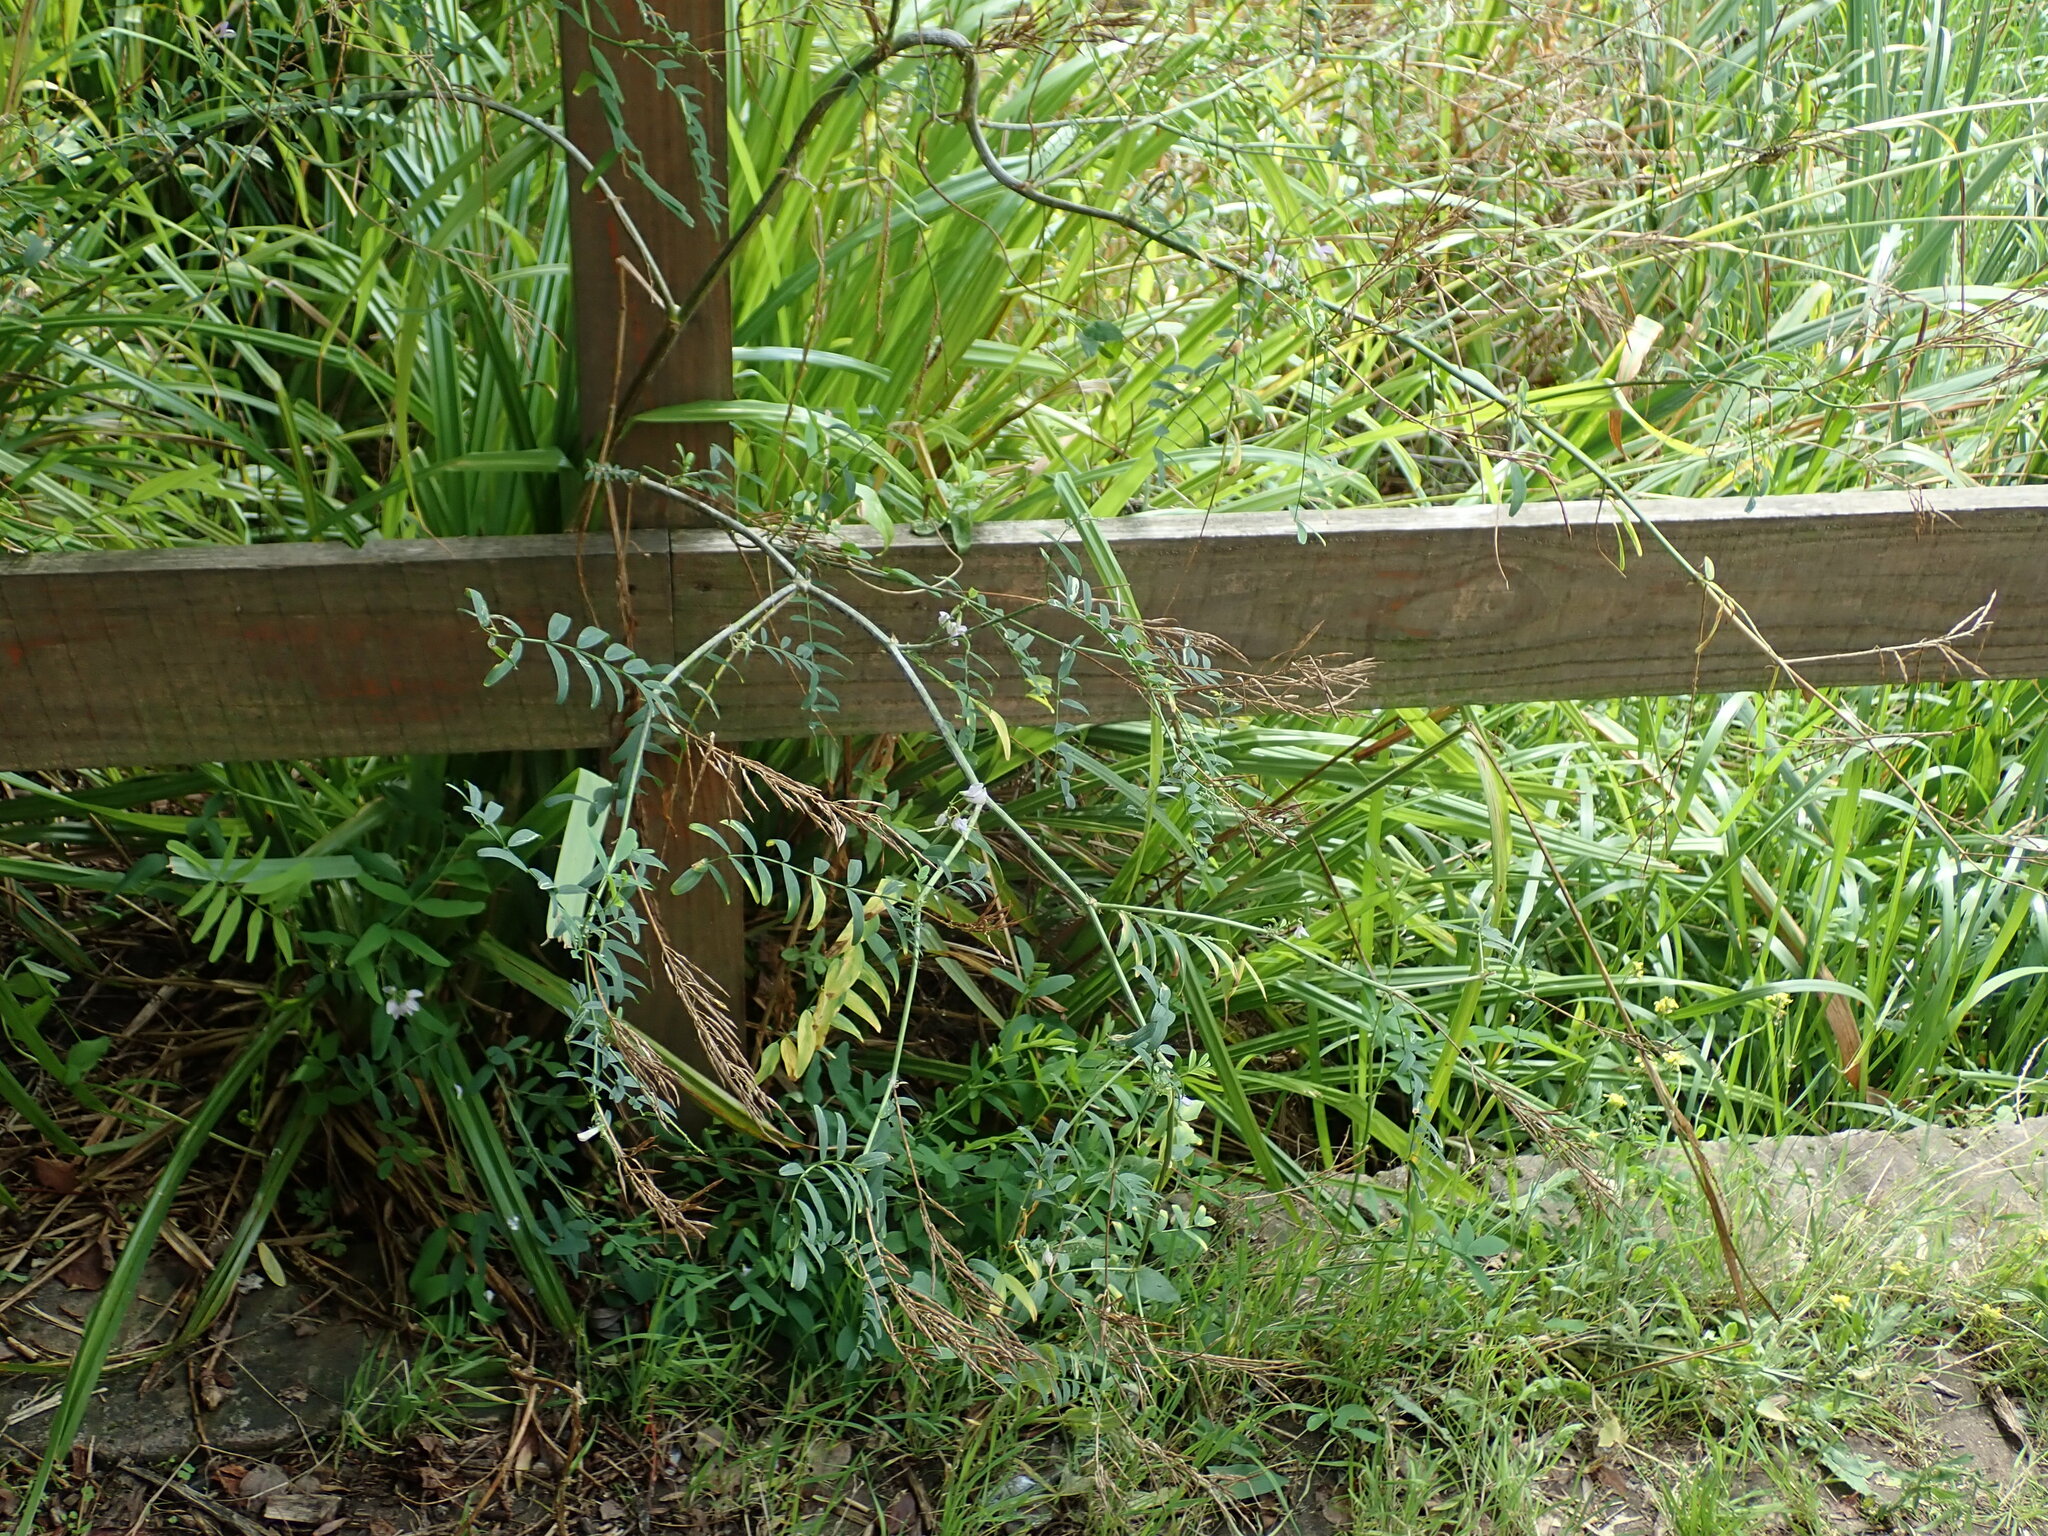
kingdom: Plantae
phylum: Tracheophyta
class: Magnoliopsida
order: Fabales
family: Fabaceae
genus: Galega
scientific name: Galega officinalis
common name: Goat's-rue
